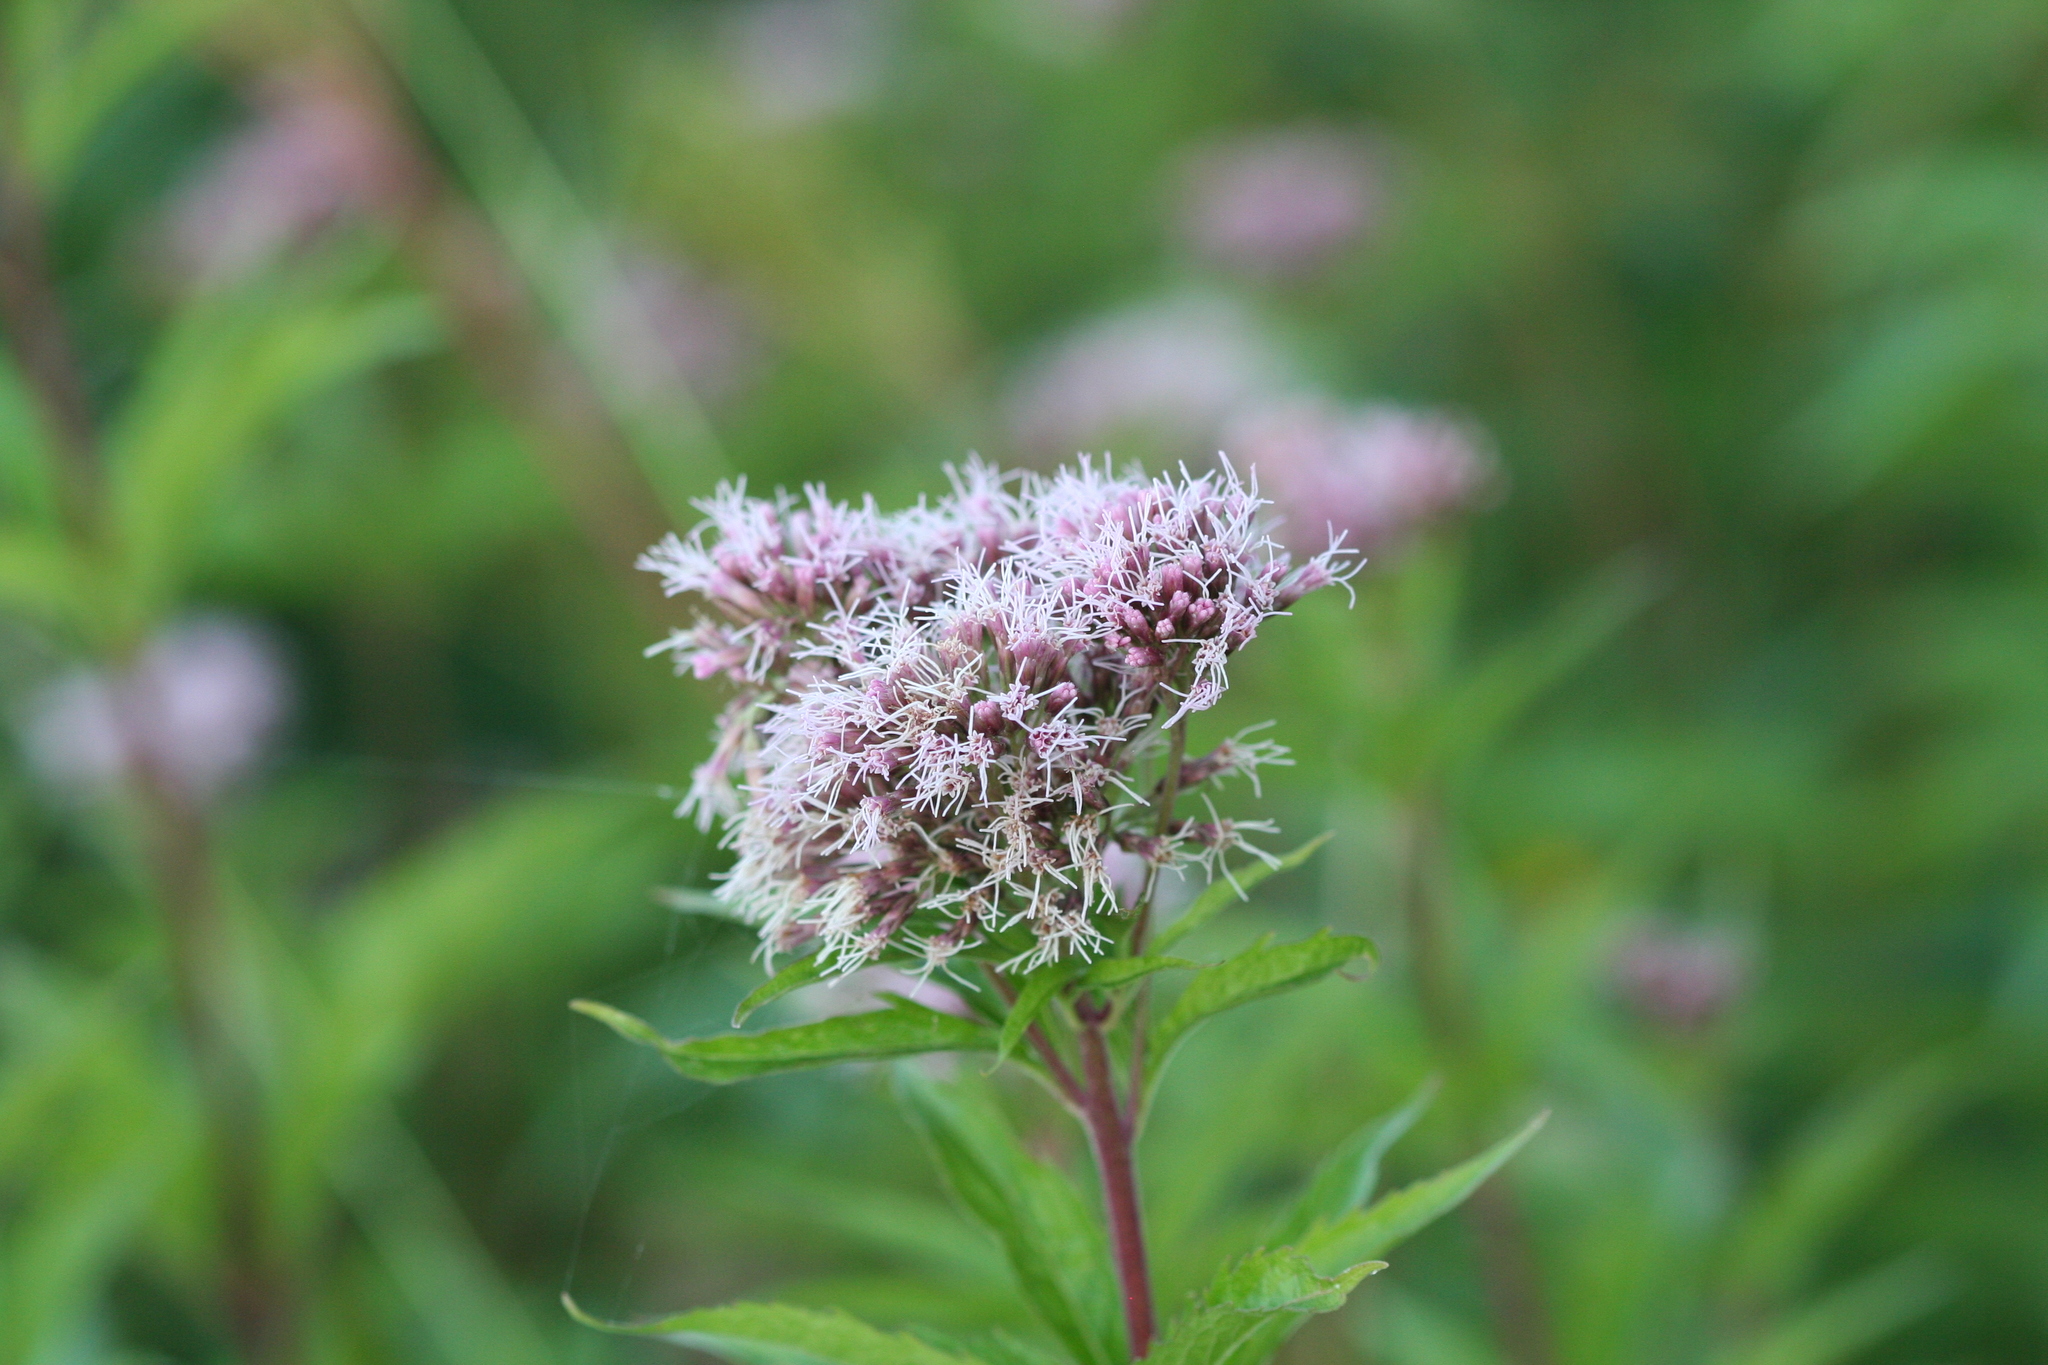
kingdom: Plantae
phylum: Tracheophyta
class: Magnoliopsida
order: Asterales
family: Asteraceae
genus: Eupatorium
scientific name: Eupatorium cannabinum
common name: Hemp-agrimony
